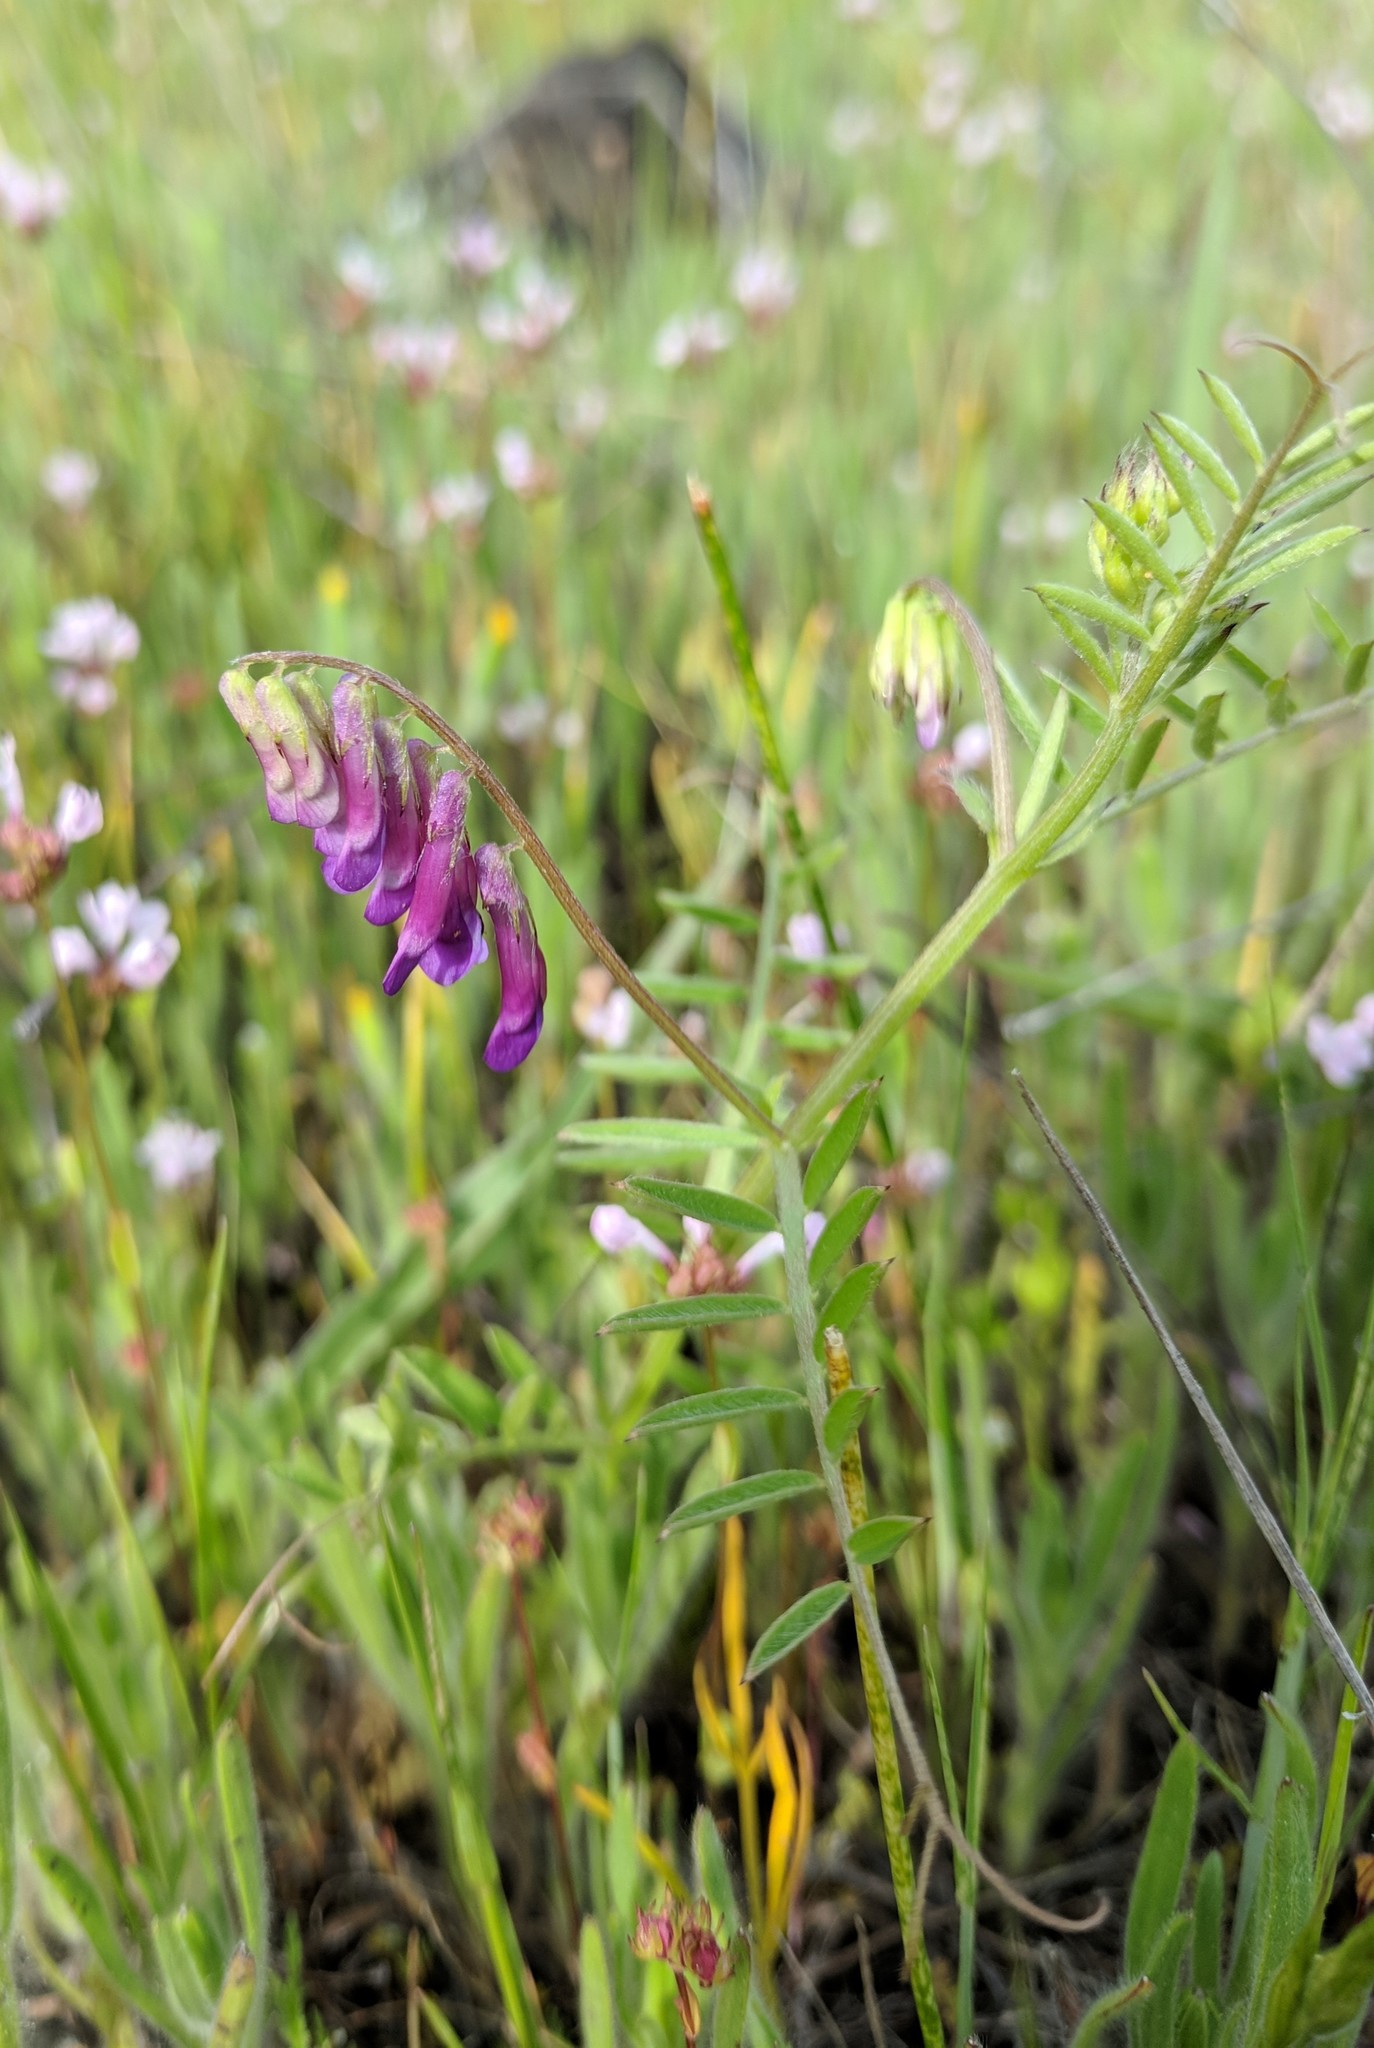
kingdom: Plantae
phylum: Tracheophyta
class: Magnoliopsida
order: Fabales
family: Fabaceae
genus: Vicia
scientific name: Vicia villosa
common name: Fodder vetch
